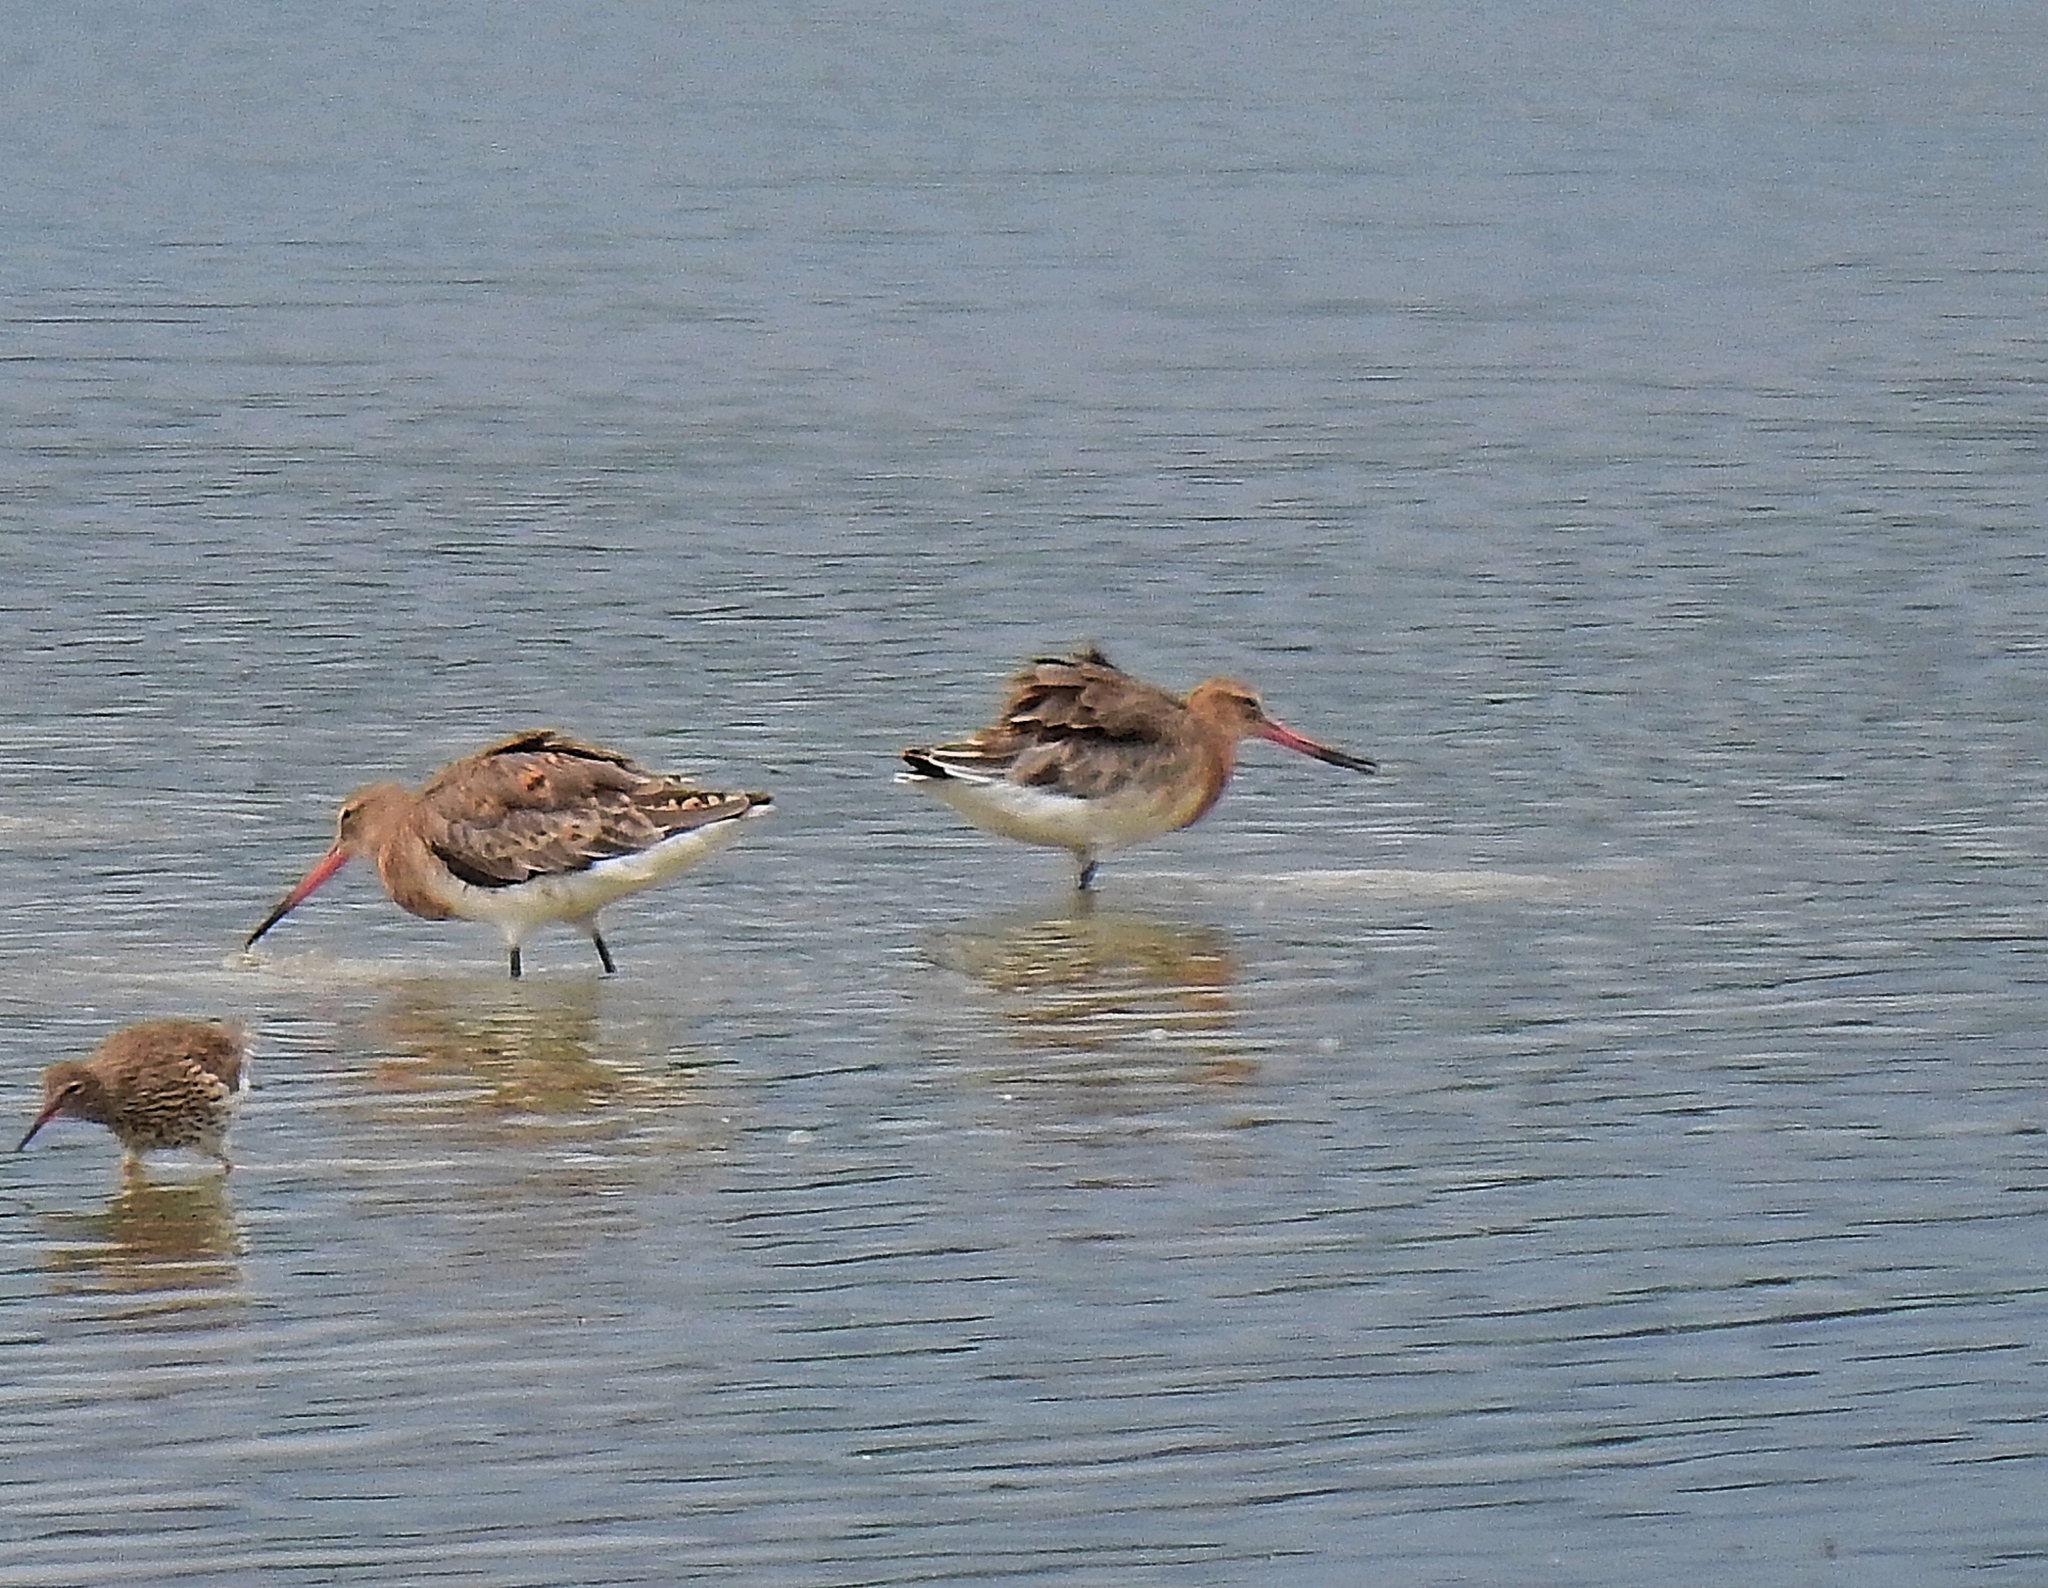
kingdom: Animalia
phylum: Chordata
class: Aves
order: Charadriiformes
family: Scolopacidae
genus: Limosa
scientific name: Limosa limosa
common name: Black-tailed godwit
